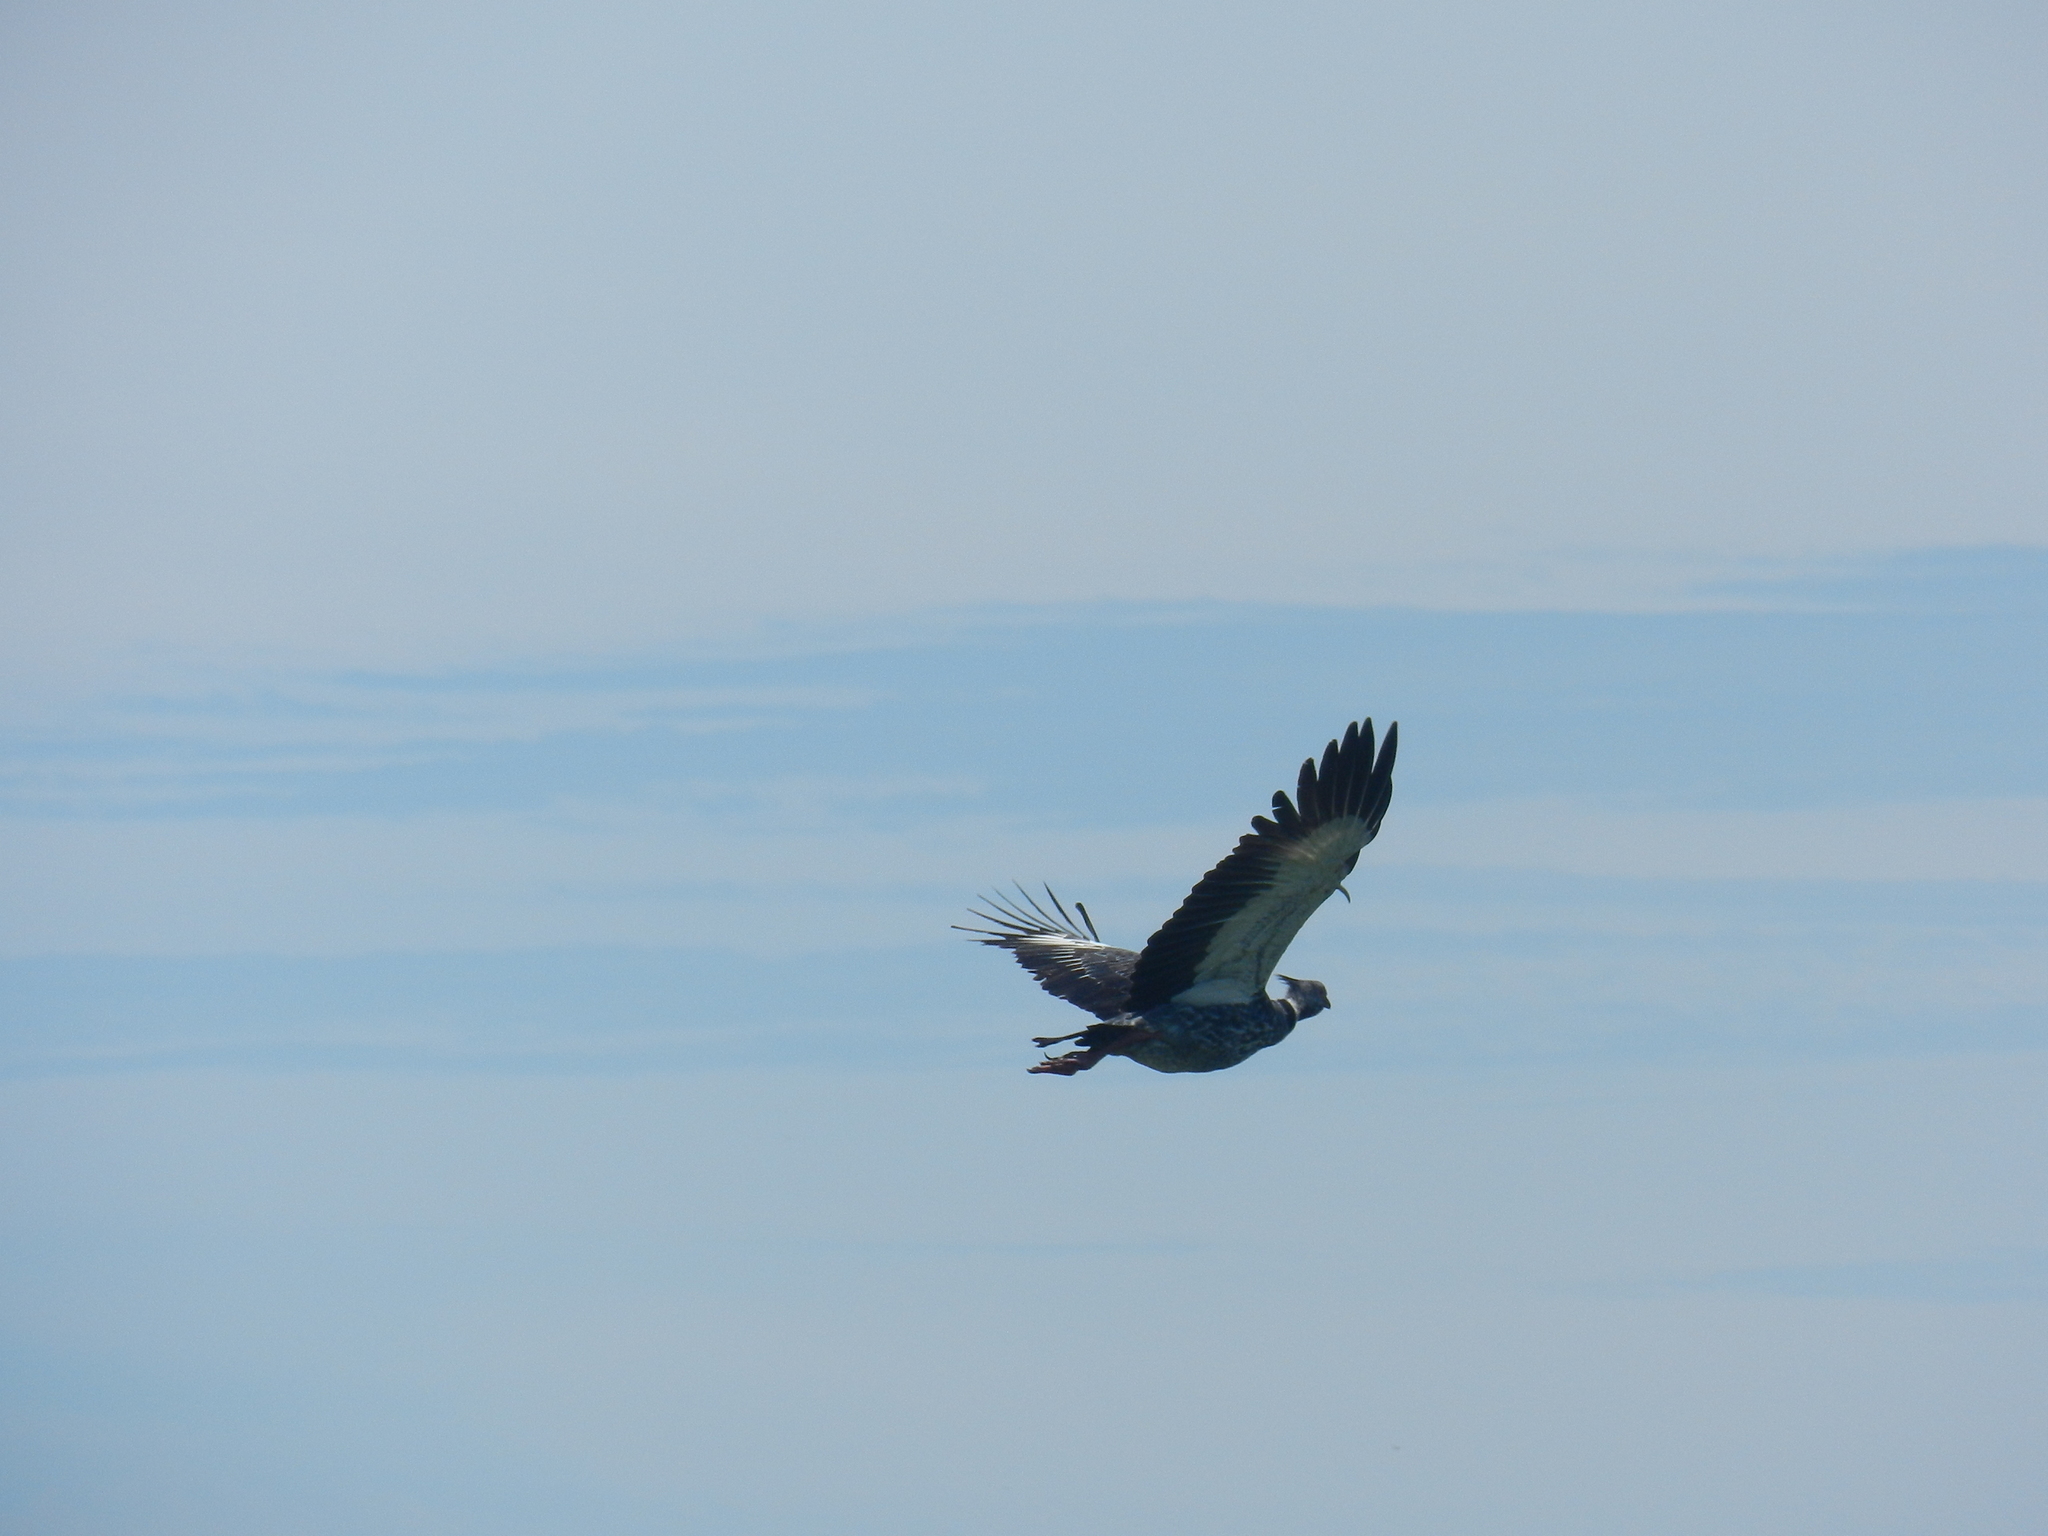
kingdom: Animalia
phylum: Chordata
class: Aves
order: Anseriformes
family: Anhimidae
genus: Chauna
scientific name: Chauna torquata
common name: Southern screamer
